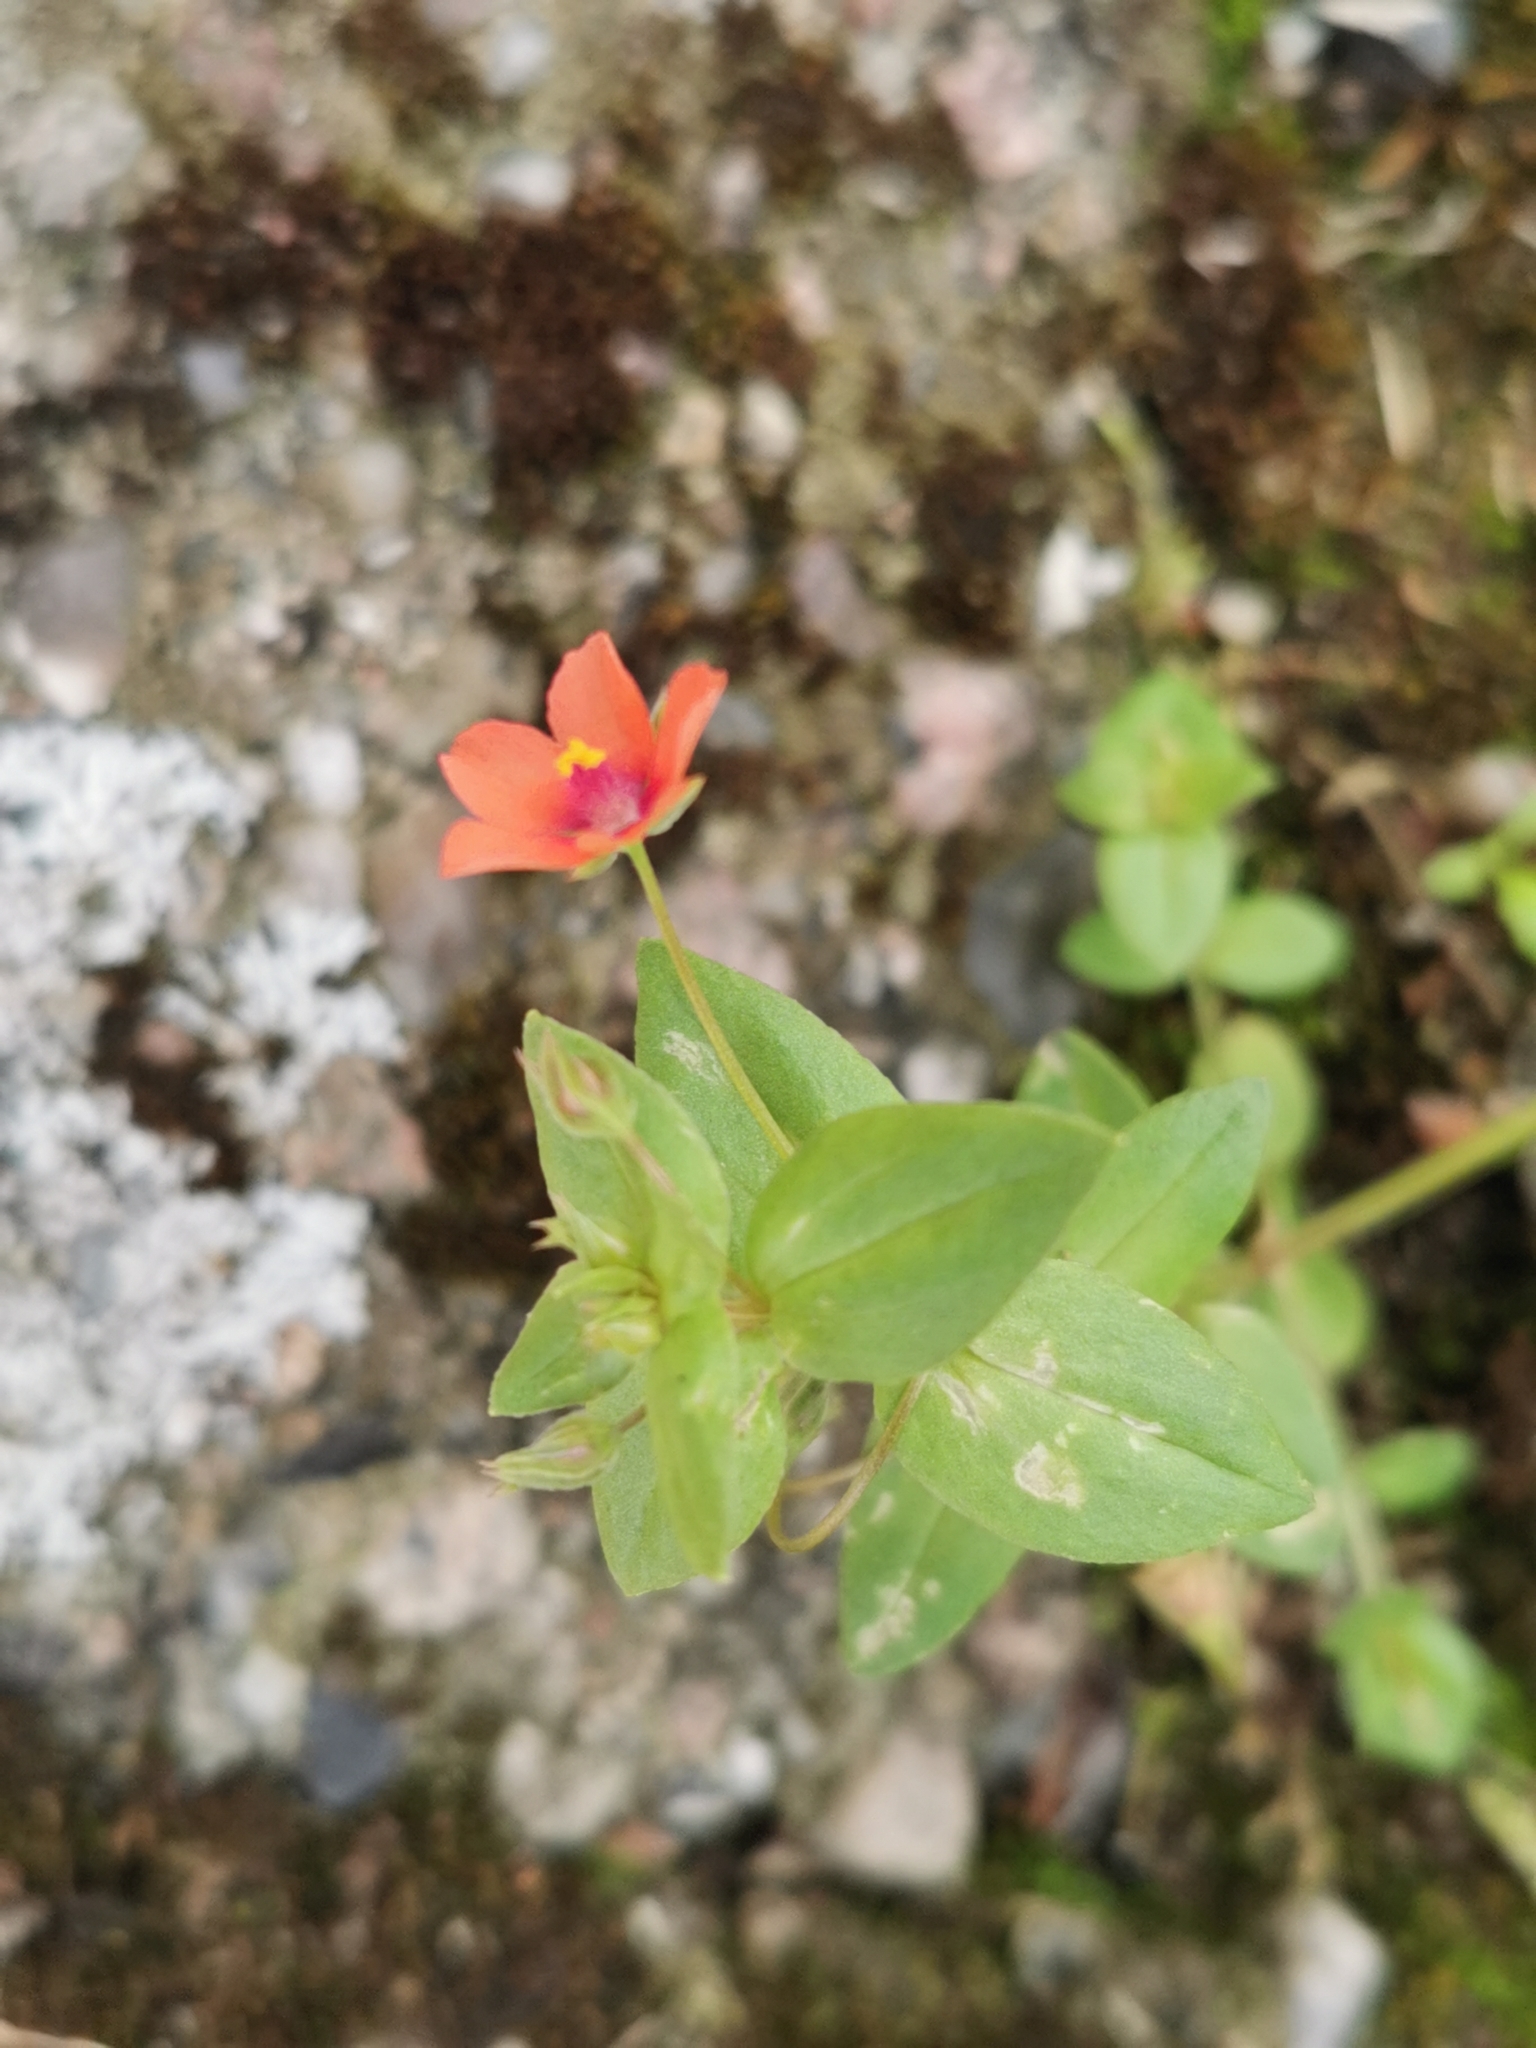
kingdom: Plantae
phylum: Tracheophyta
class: Magnoliopsida
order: Ericales
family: Primulaceae
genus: Lysimachia
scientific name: Lysimachia arvensis
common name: Scarlet pimpernel
